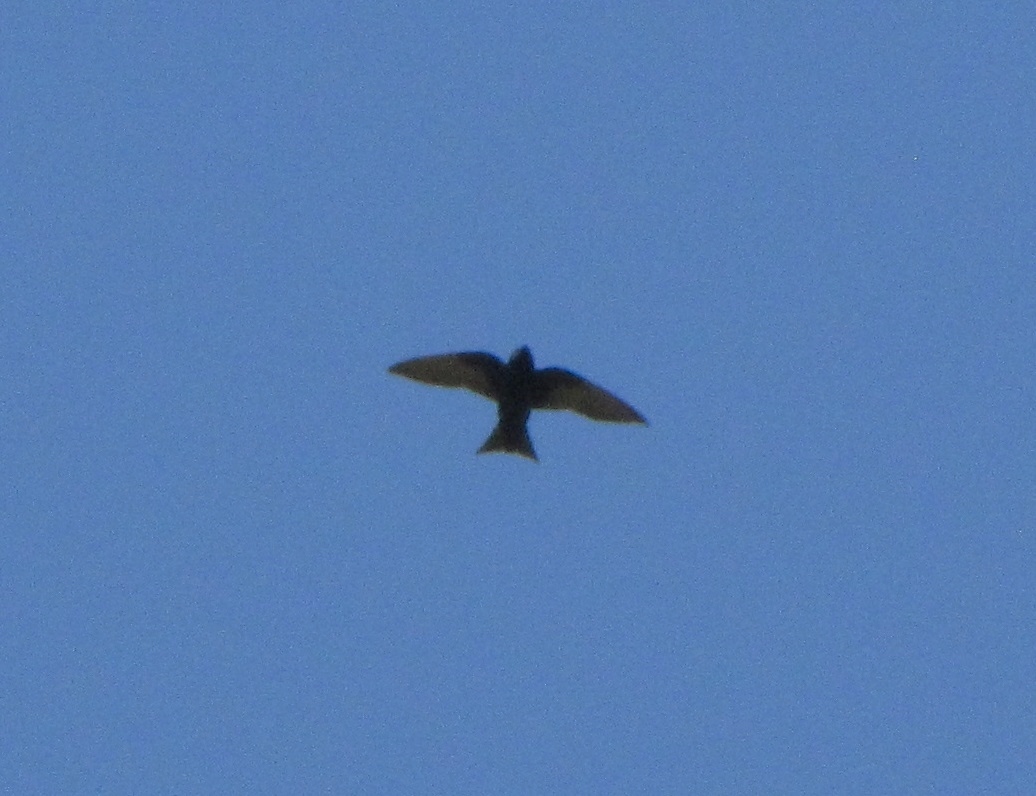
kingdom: Animalia
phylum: Chordata
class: Aves
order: Passeriformes
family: Hirundinidae
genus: Progne
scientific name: Progne subis
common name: Purple martin
